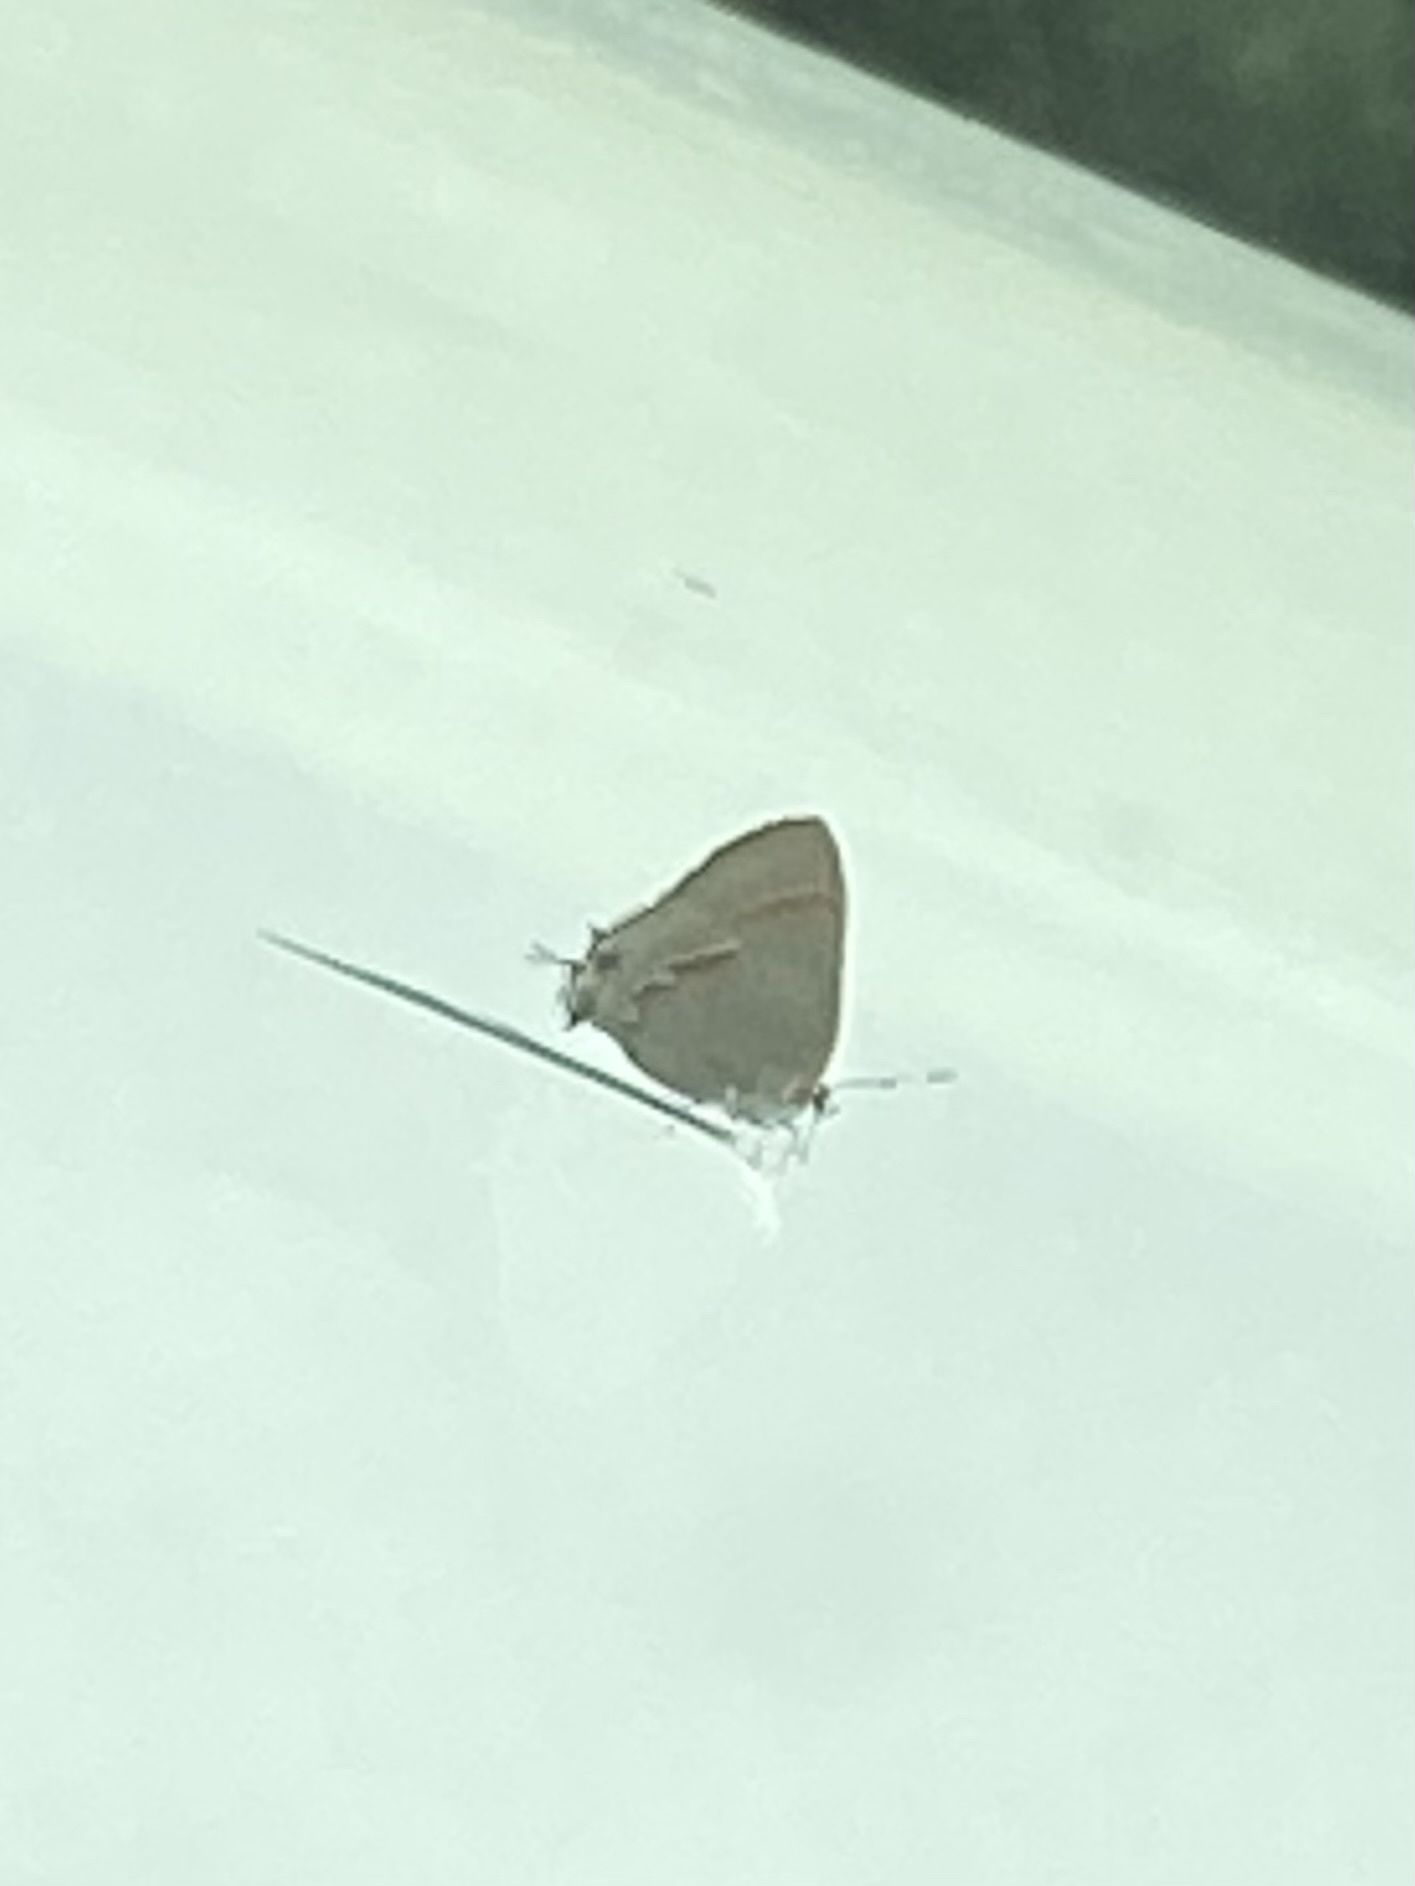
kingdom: Animalia
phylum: Arthropoda
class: Insecta
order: Lepidoptera
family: Lycaenidae
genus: Calycopis
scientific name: Calycopis cecrops
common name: Red-banded hairstreak
